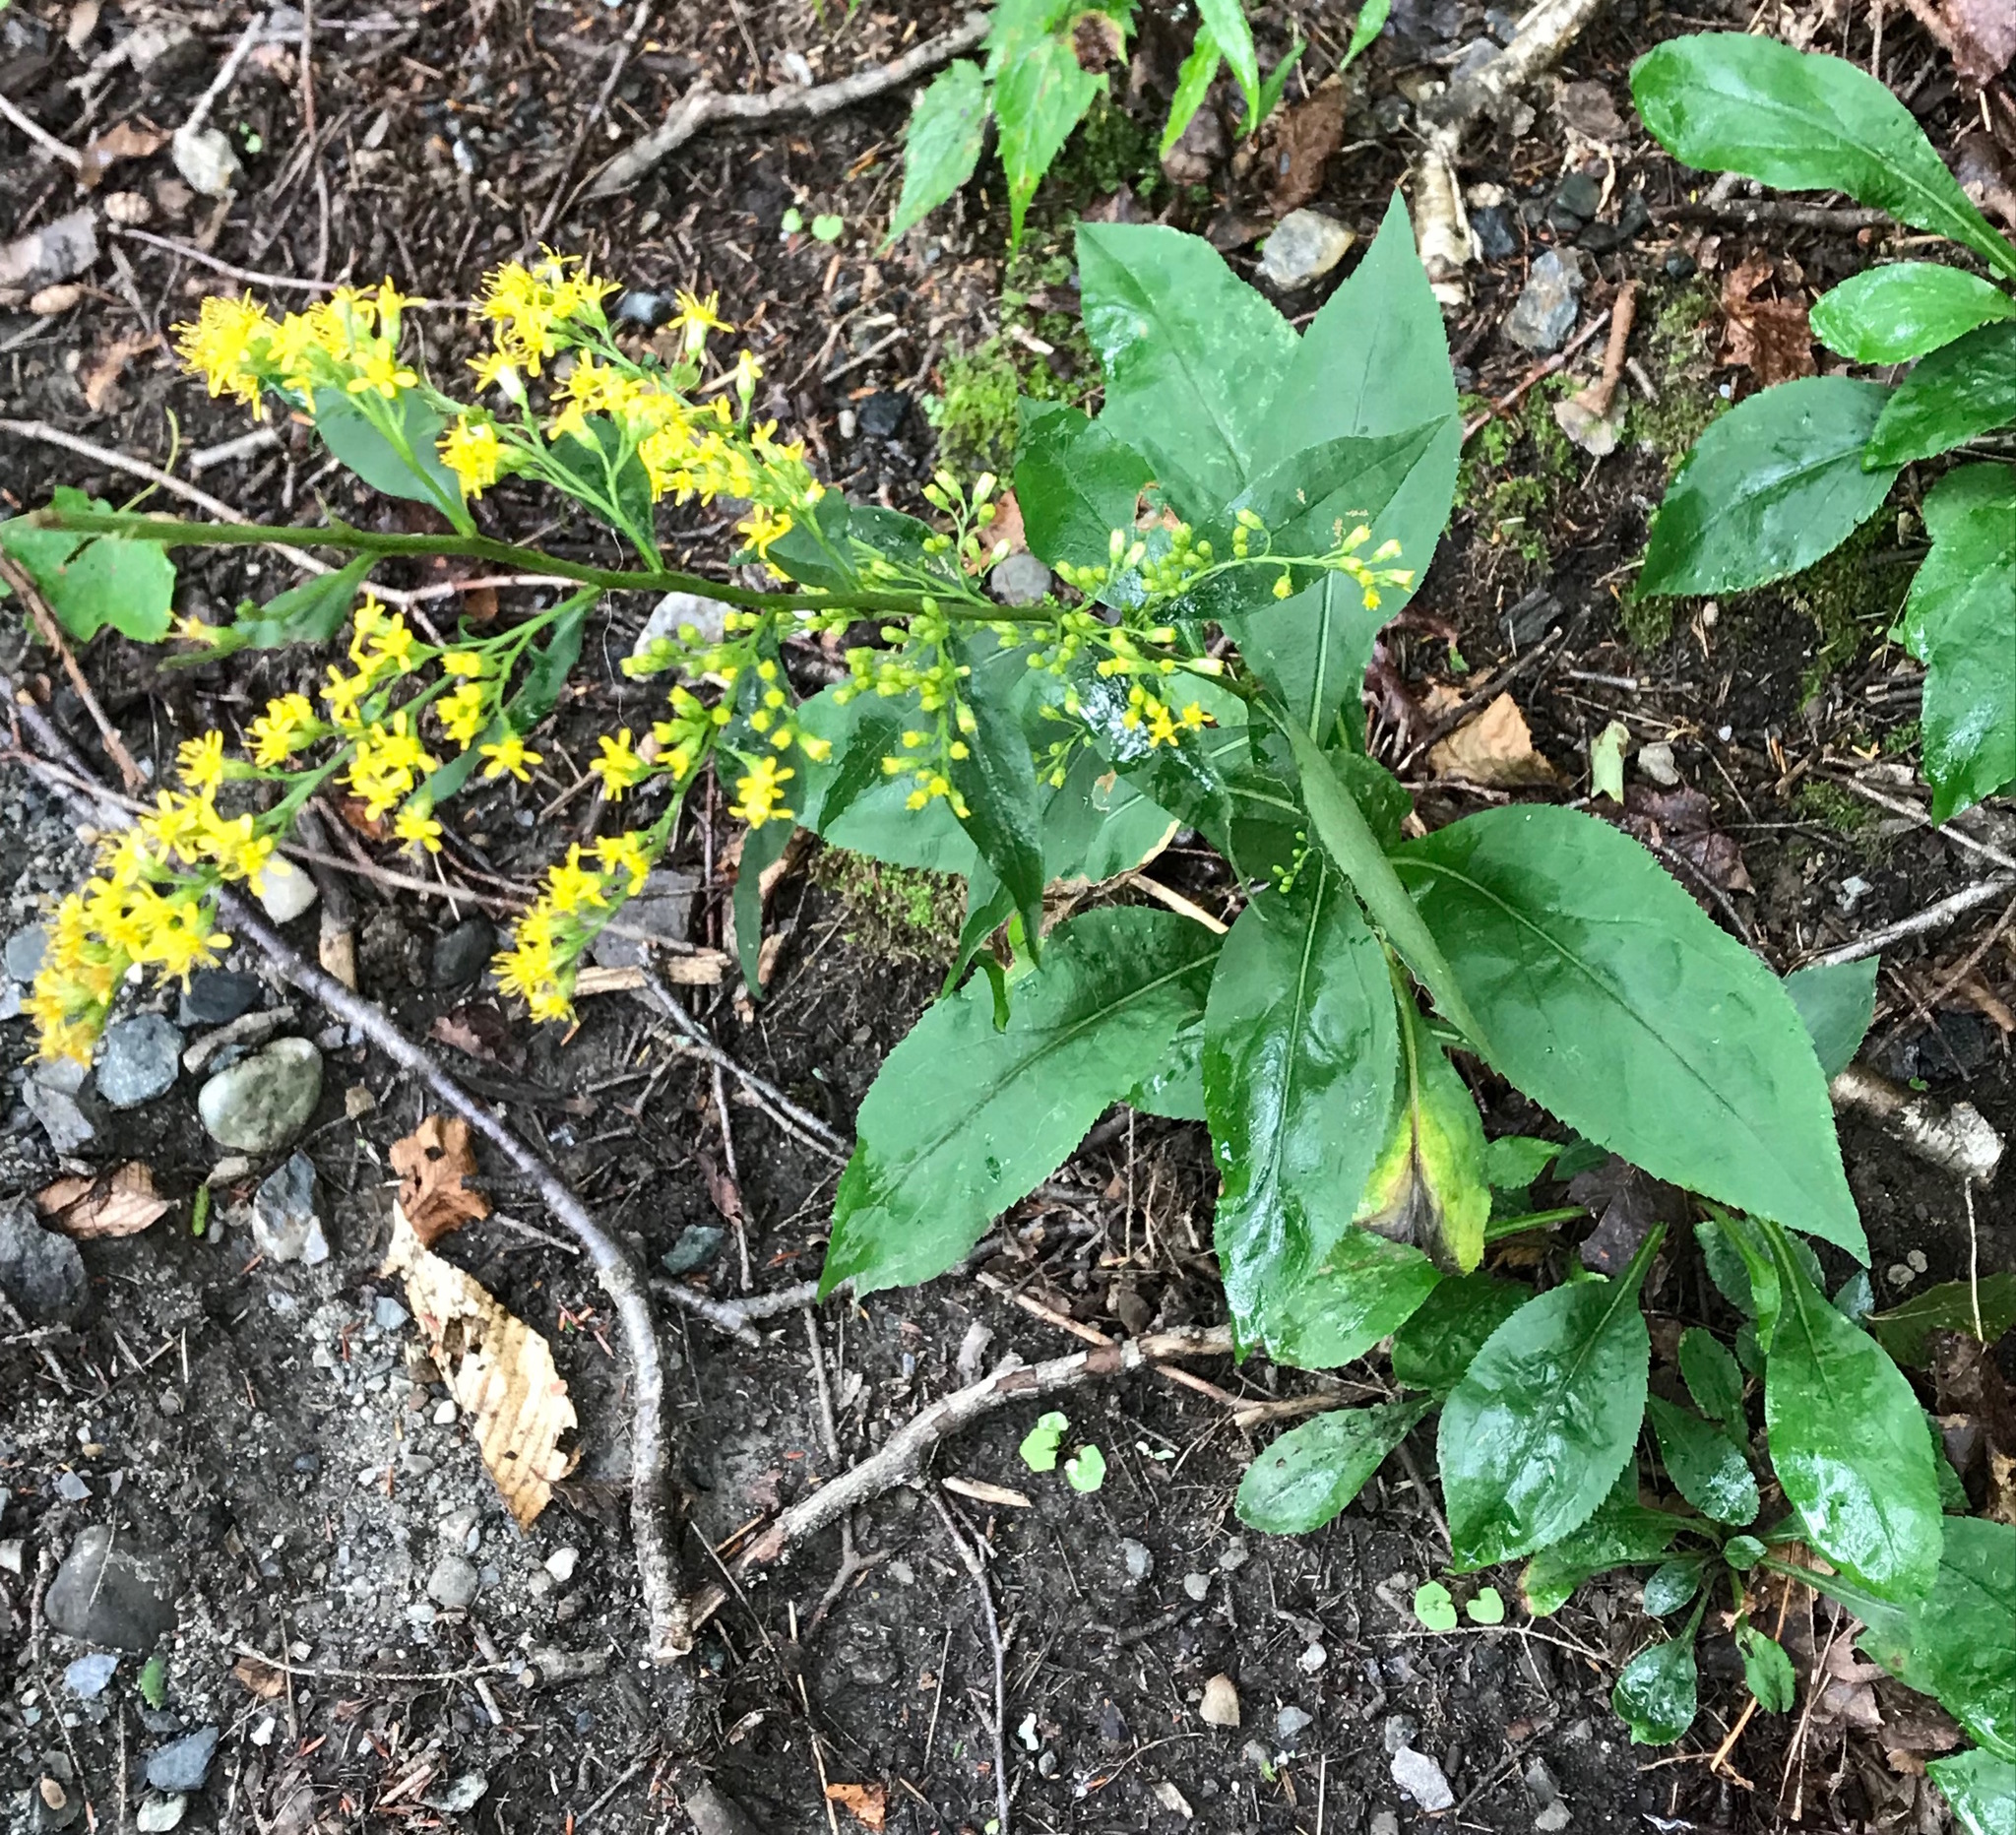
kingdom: Plantae
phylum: Tracheophyta
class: Magnoliopsida
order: Asterales
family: Asteraceae
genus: Solidago
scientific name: Solidago arguta
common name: Atlantic goldenrod
